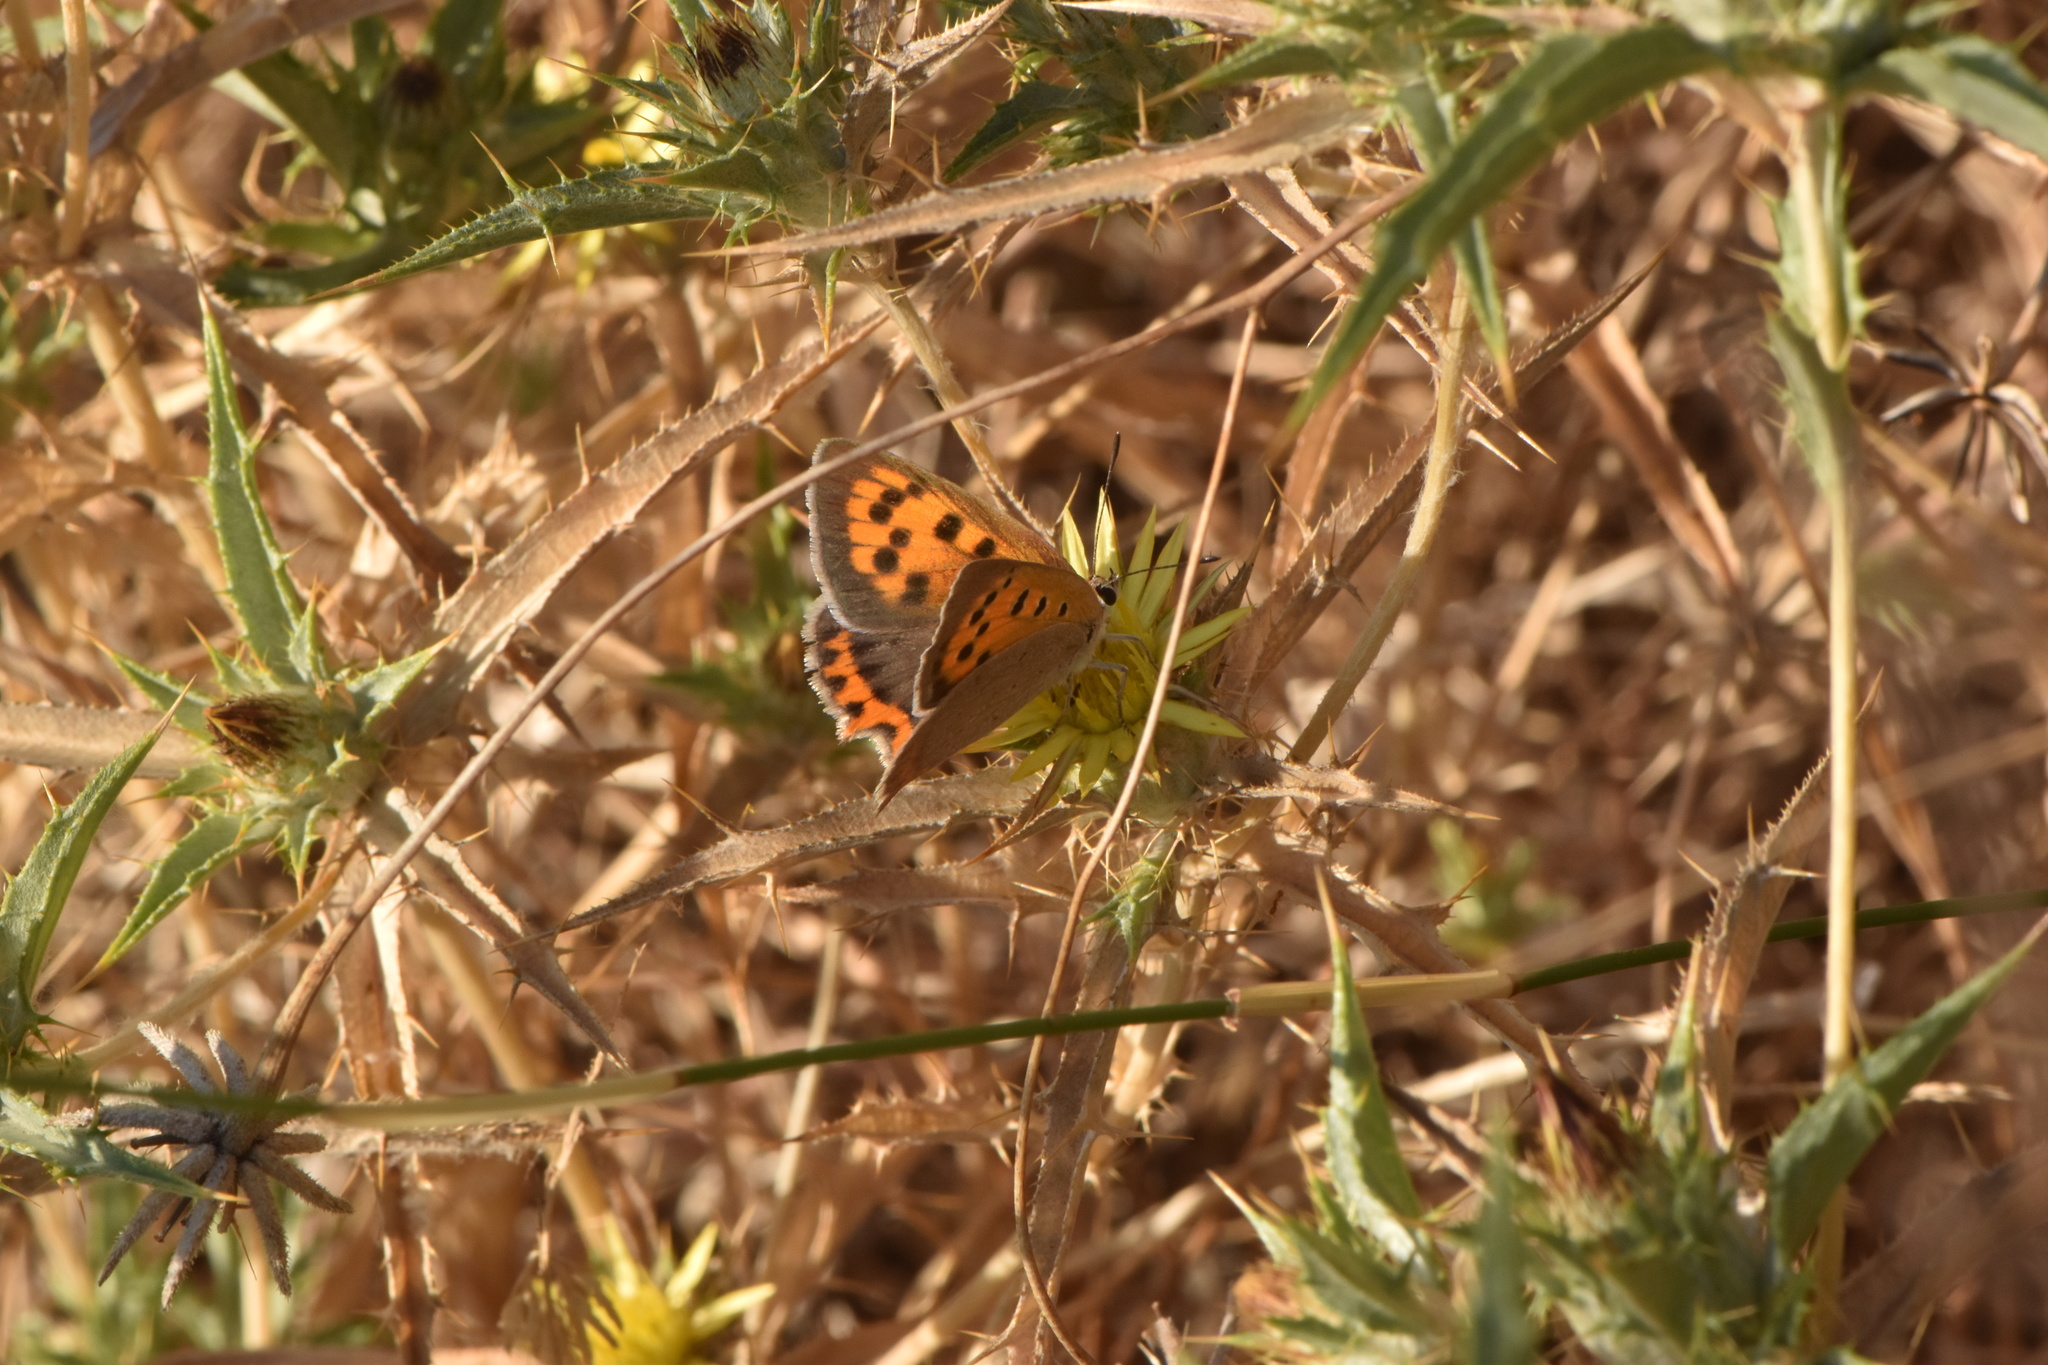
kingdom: Animalia
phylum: Arthropoda
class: Insecta
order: Lepidoptera
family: Lycaenidae
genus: Lycaena
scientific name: Lycaena phlaeas
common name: Small copper
